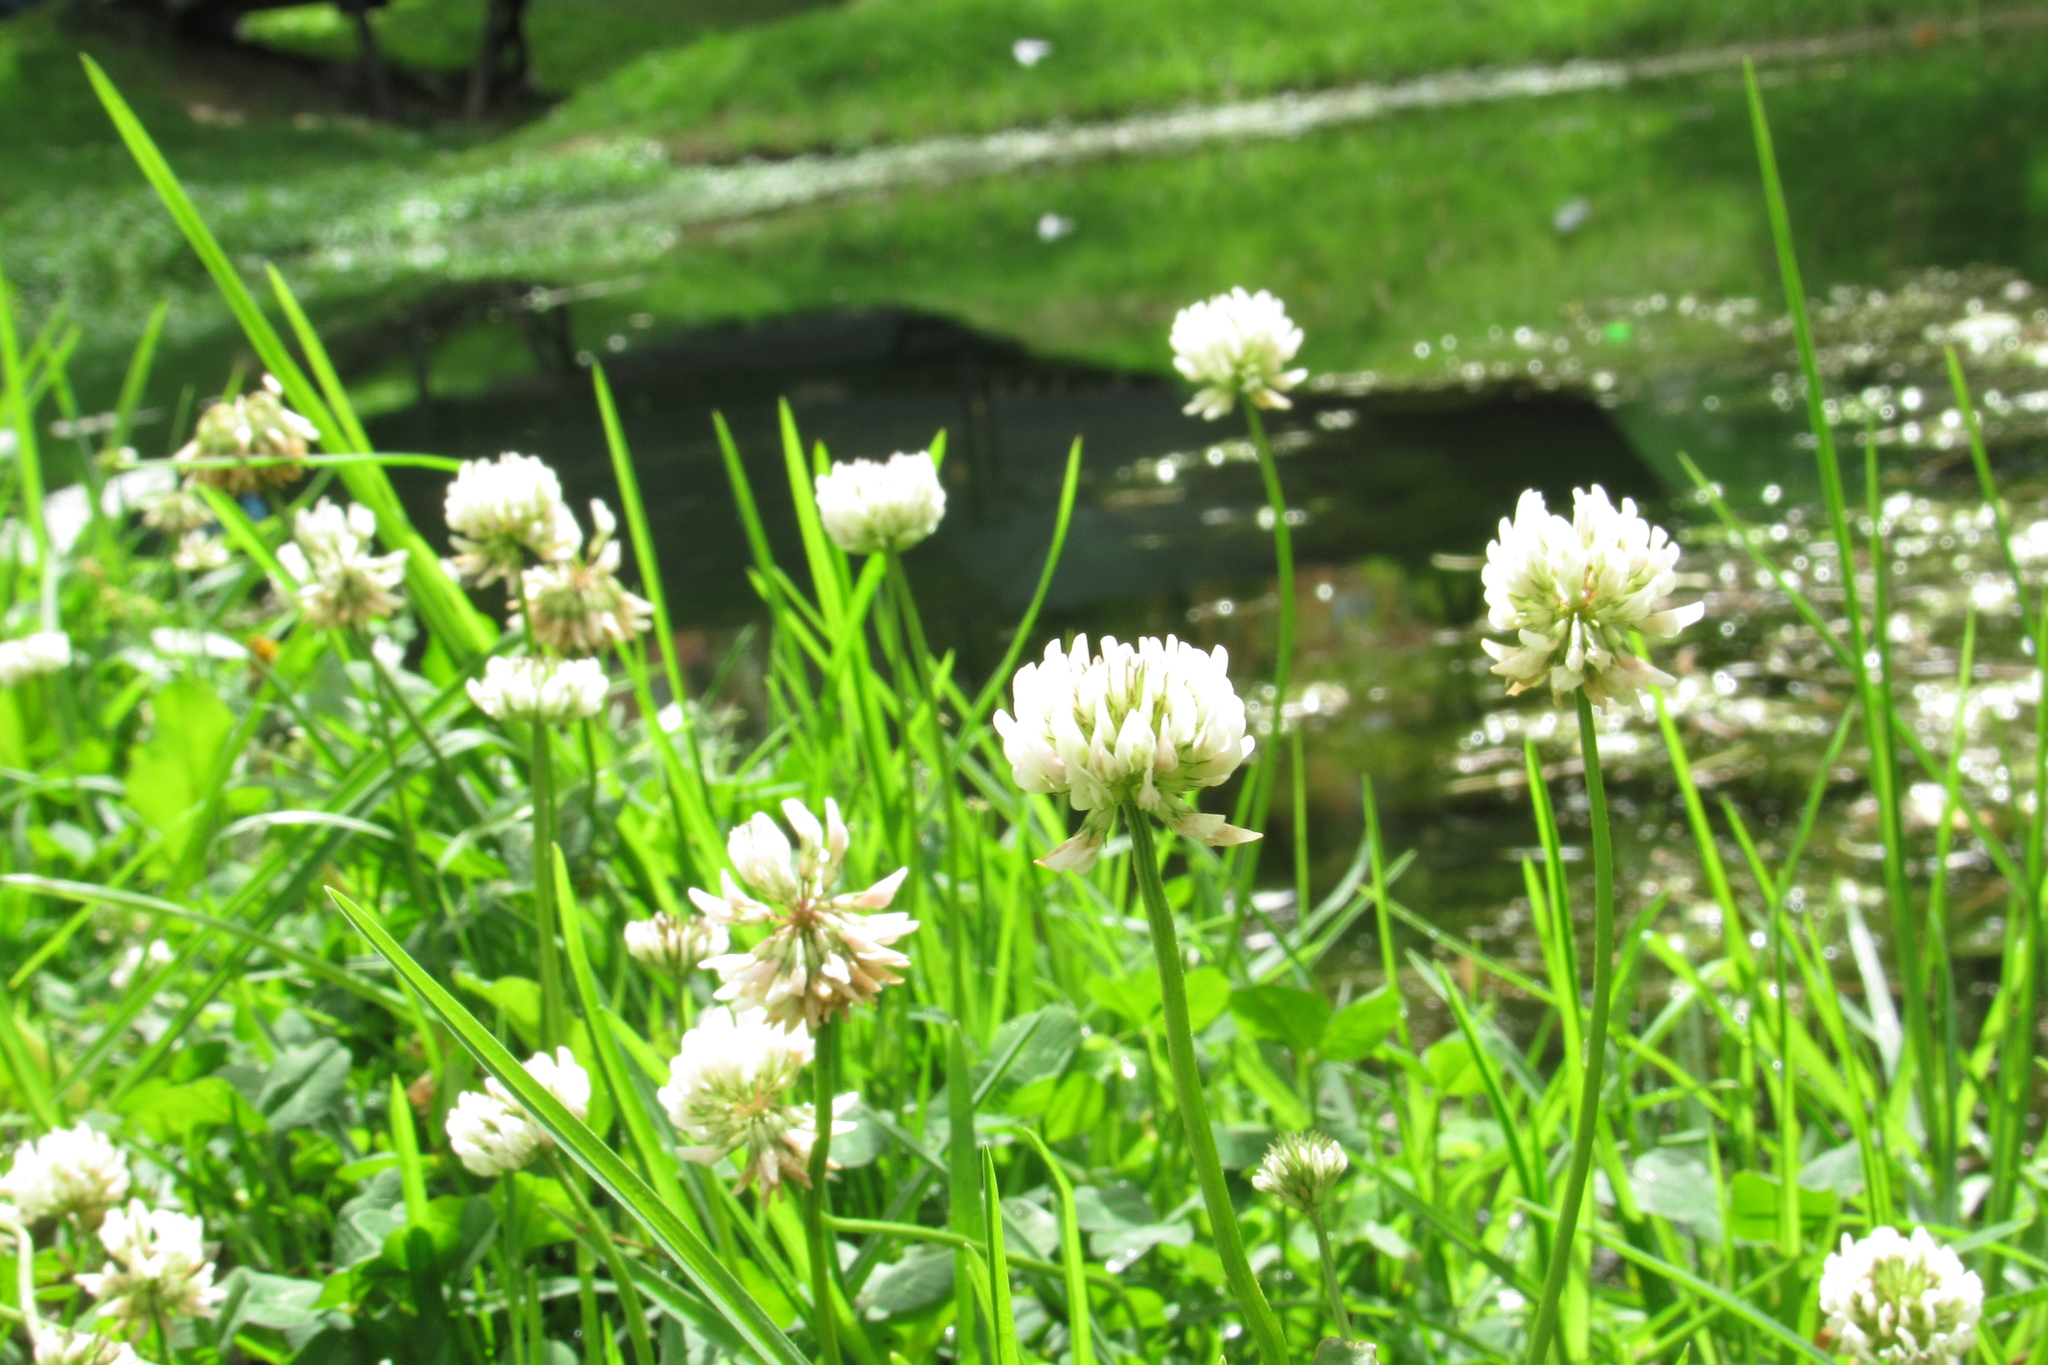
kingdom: Plantae
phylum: Tracheophyta
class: Magnoliopsida
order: Fabales
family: Fabaceae
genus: Trifolium
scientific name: Trifolium repens
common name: White clover
